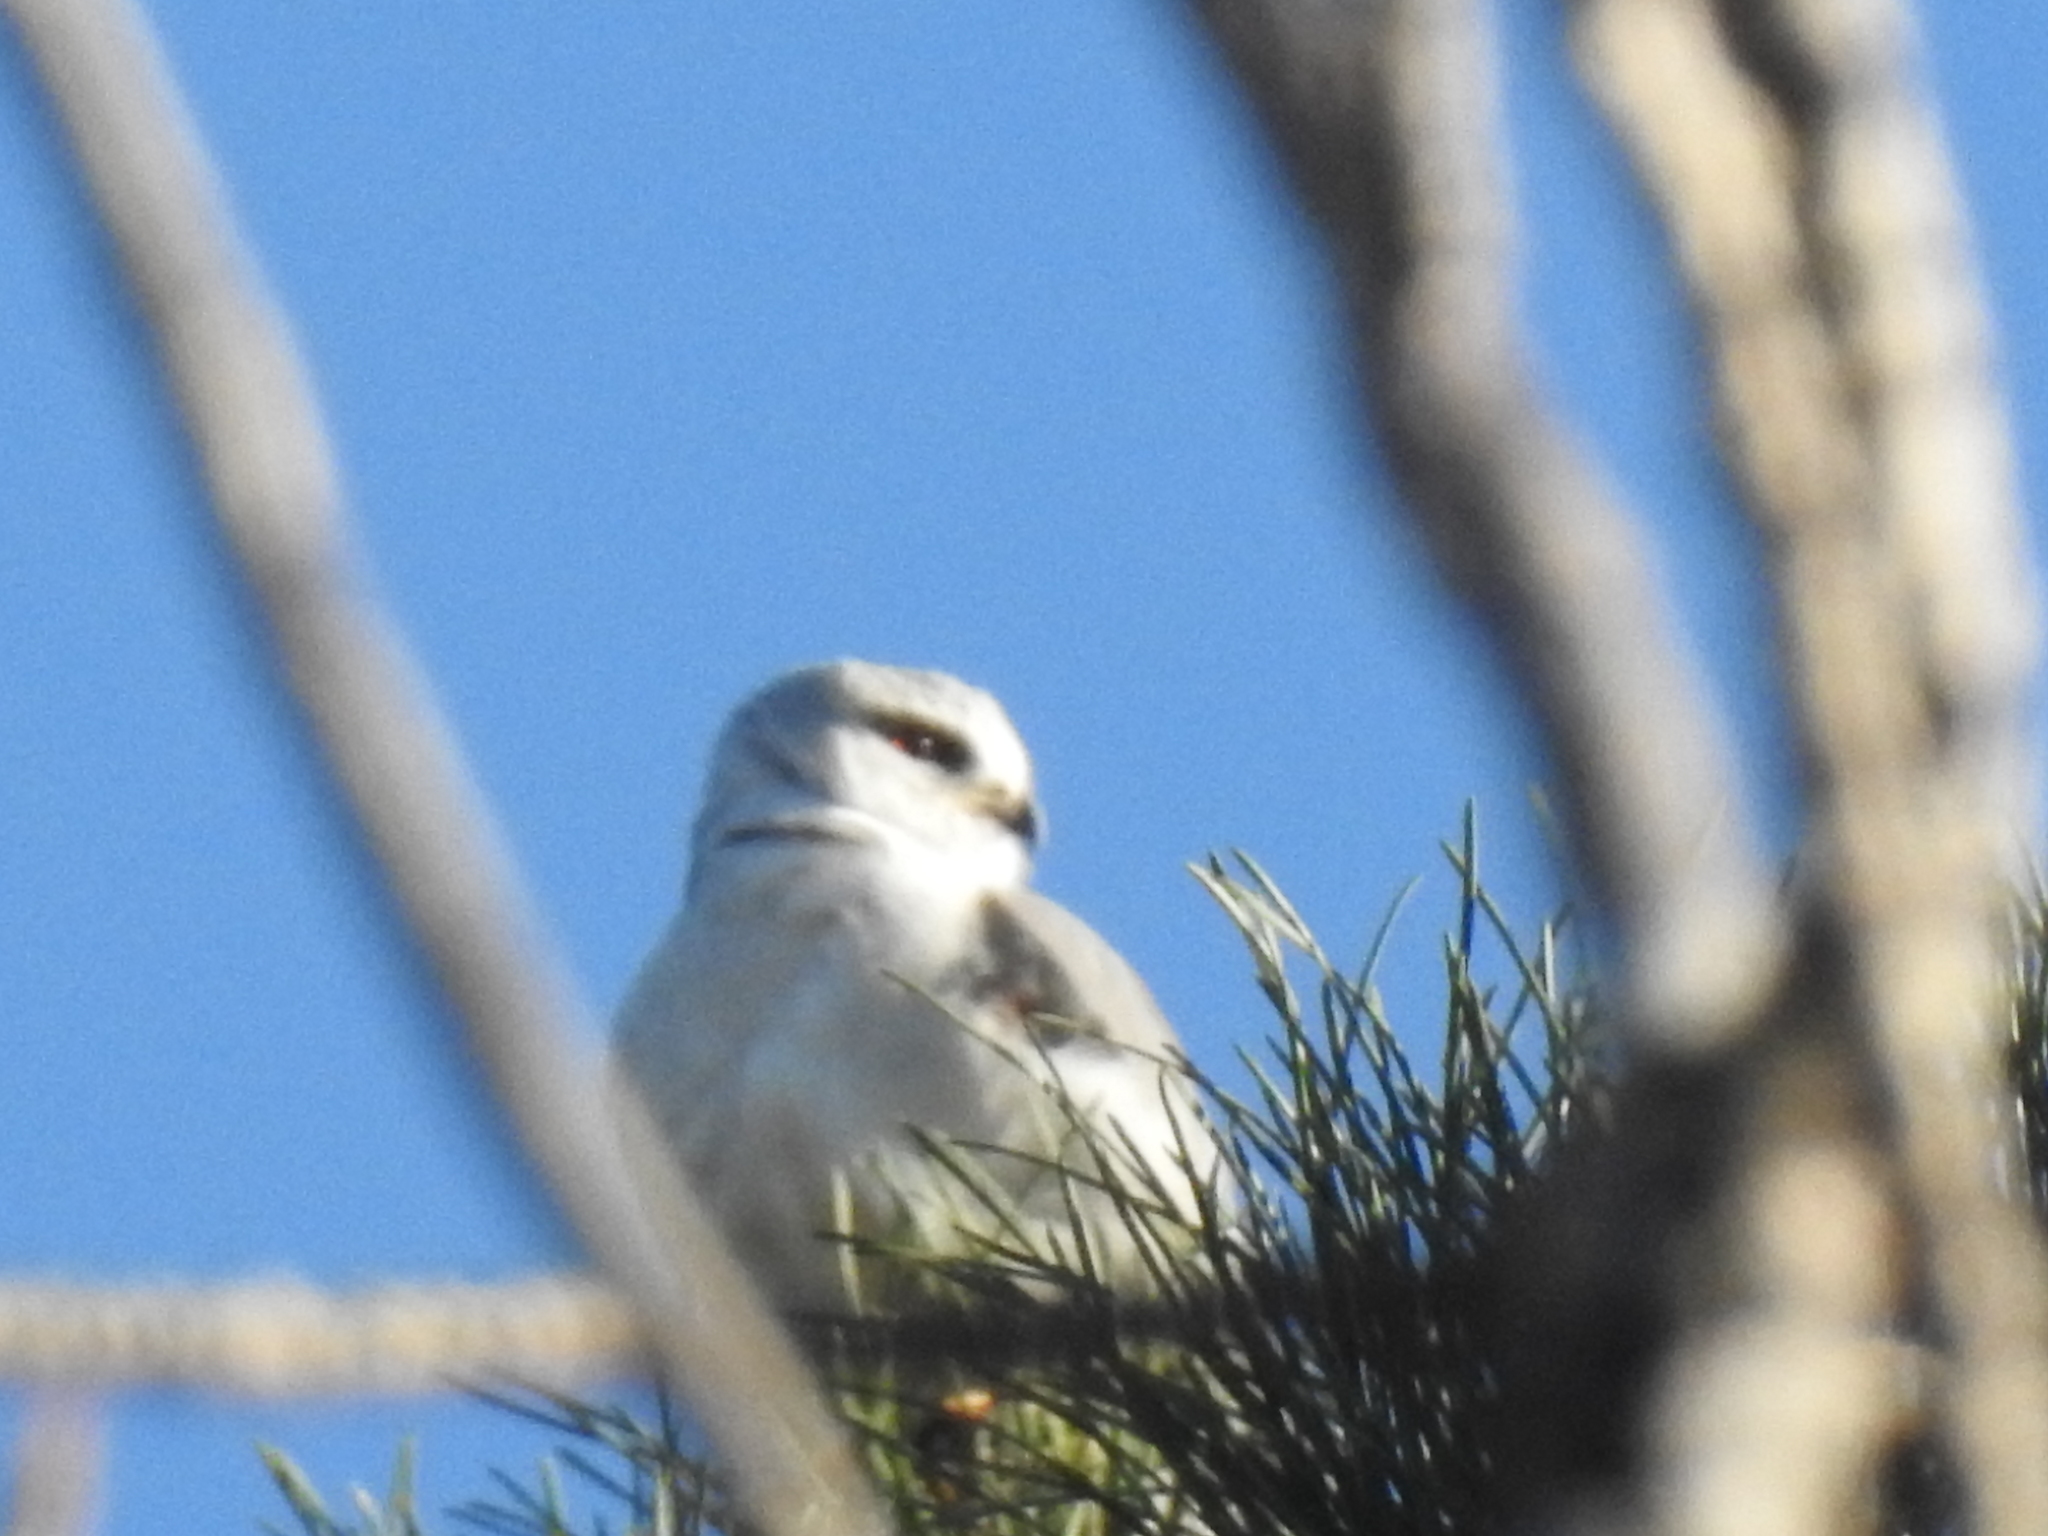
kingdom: Animalia
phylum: Chordata
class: Aves
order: Accipitriformes
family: Accipitridae
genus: Elanus
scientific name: Elanus caeruleus
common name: Black-winged kite
